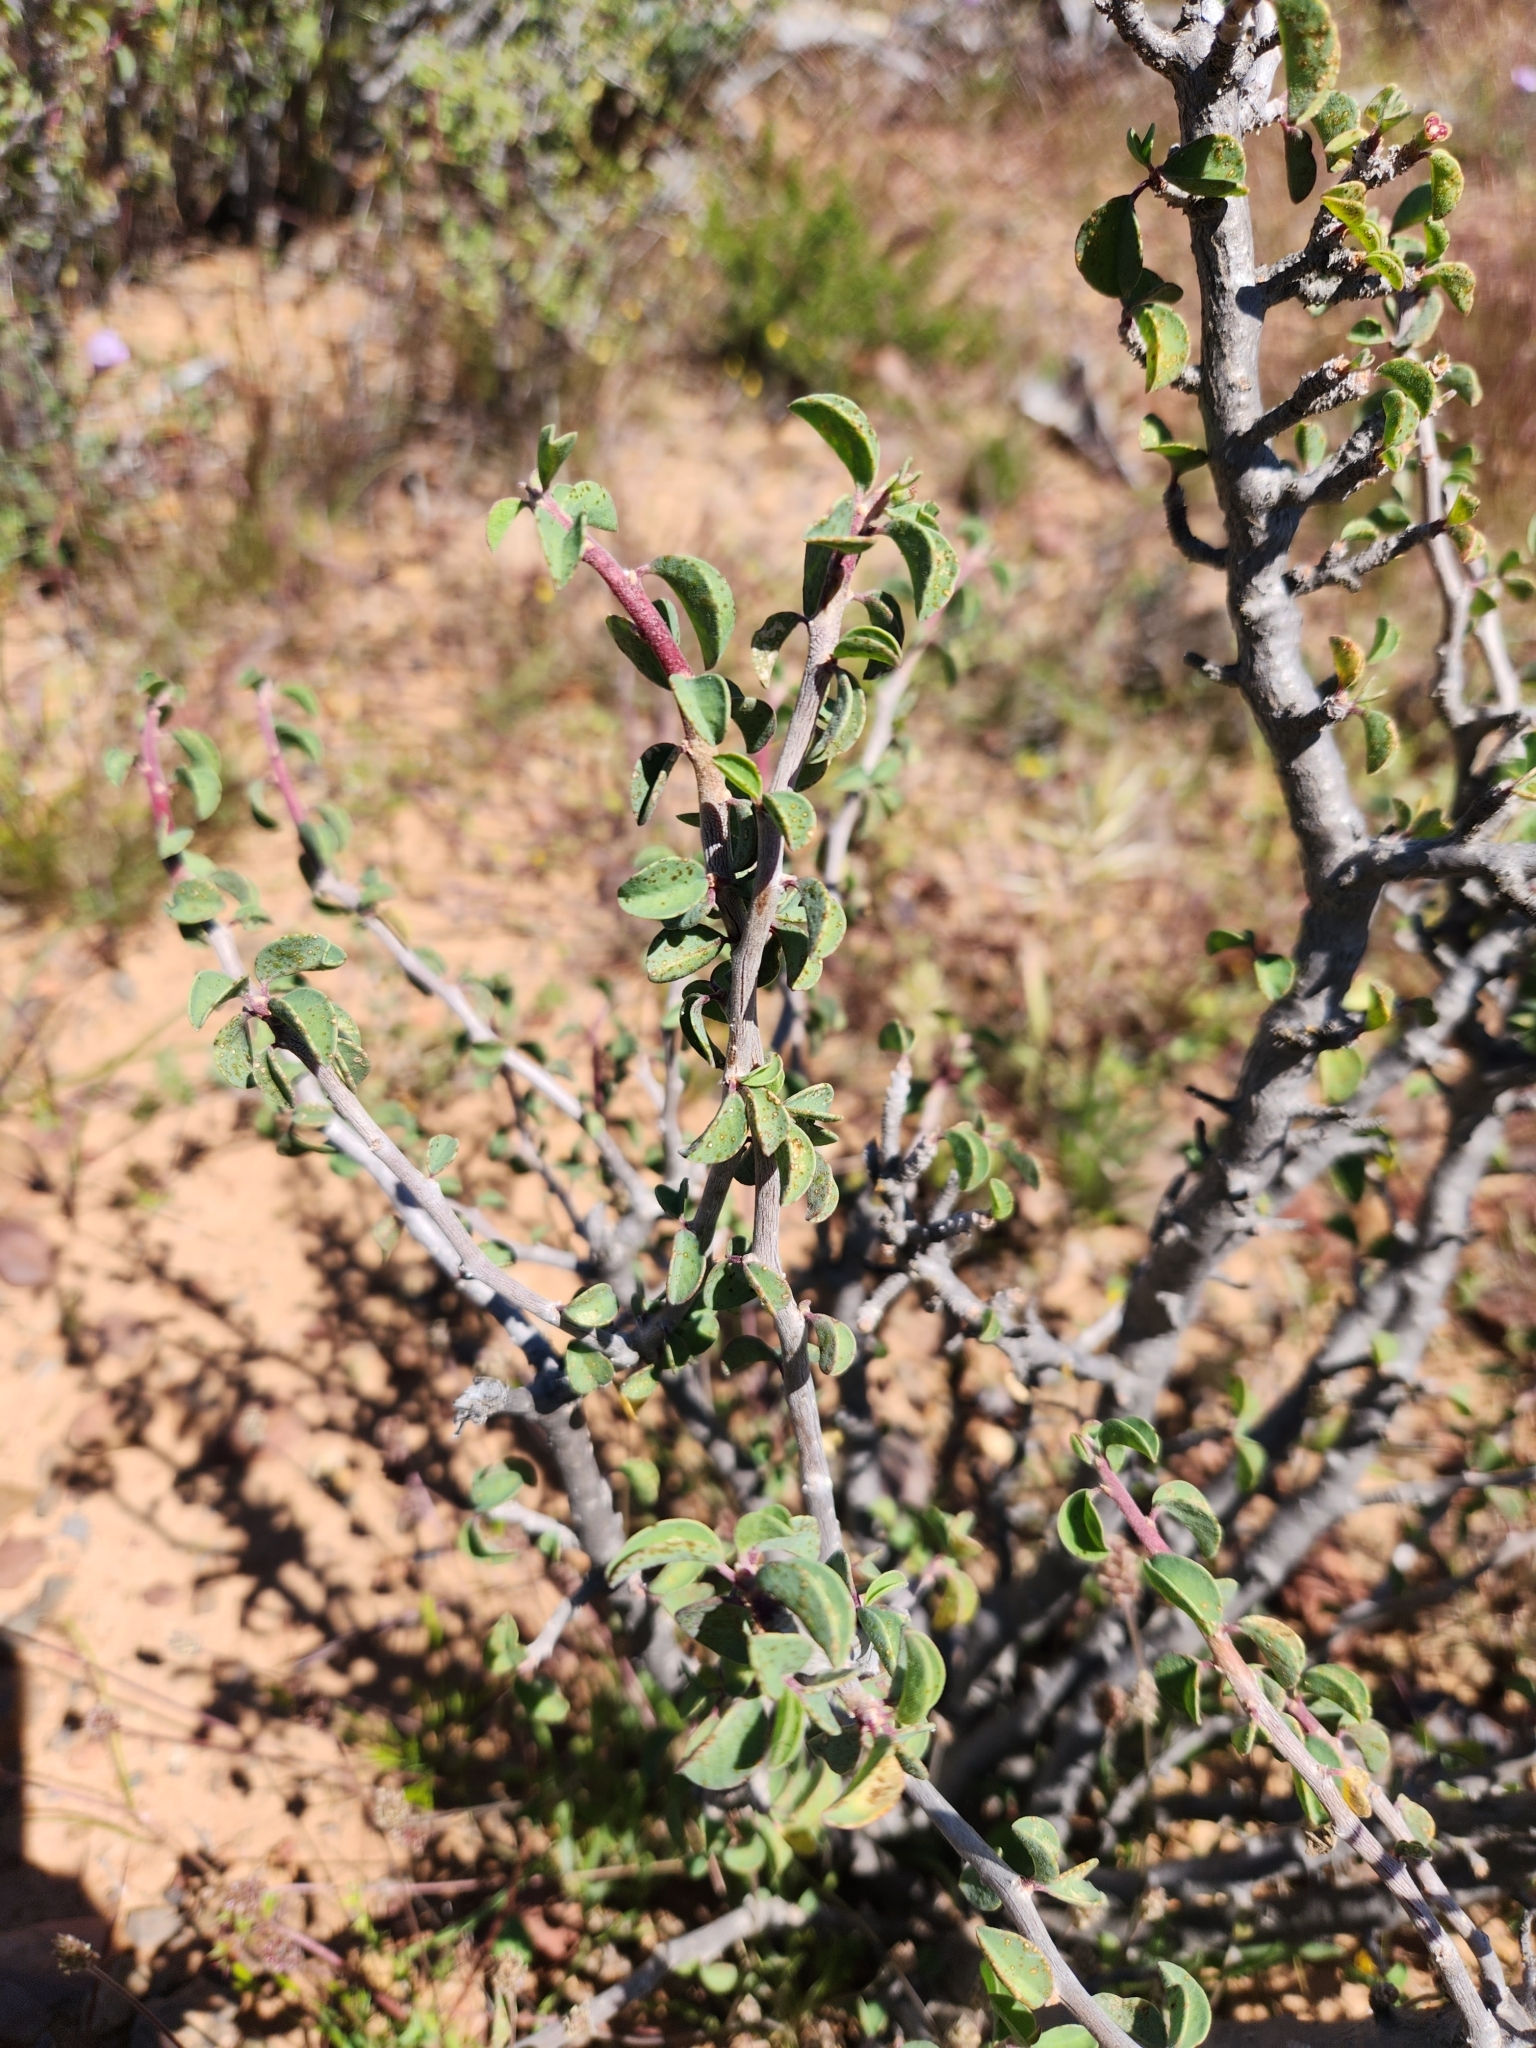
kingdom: Plantae
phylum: Tracheophyta
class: Magnoliopsida
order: Malpighiales
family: Euphorbiaceae
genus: Euphorbia
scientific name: Euphorbia misera
